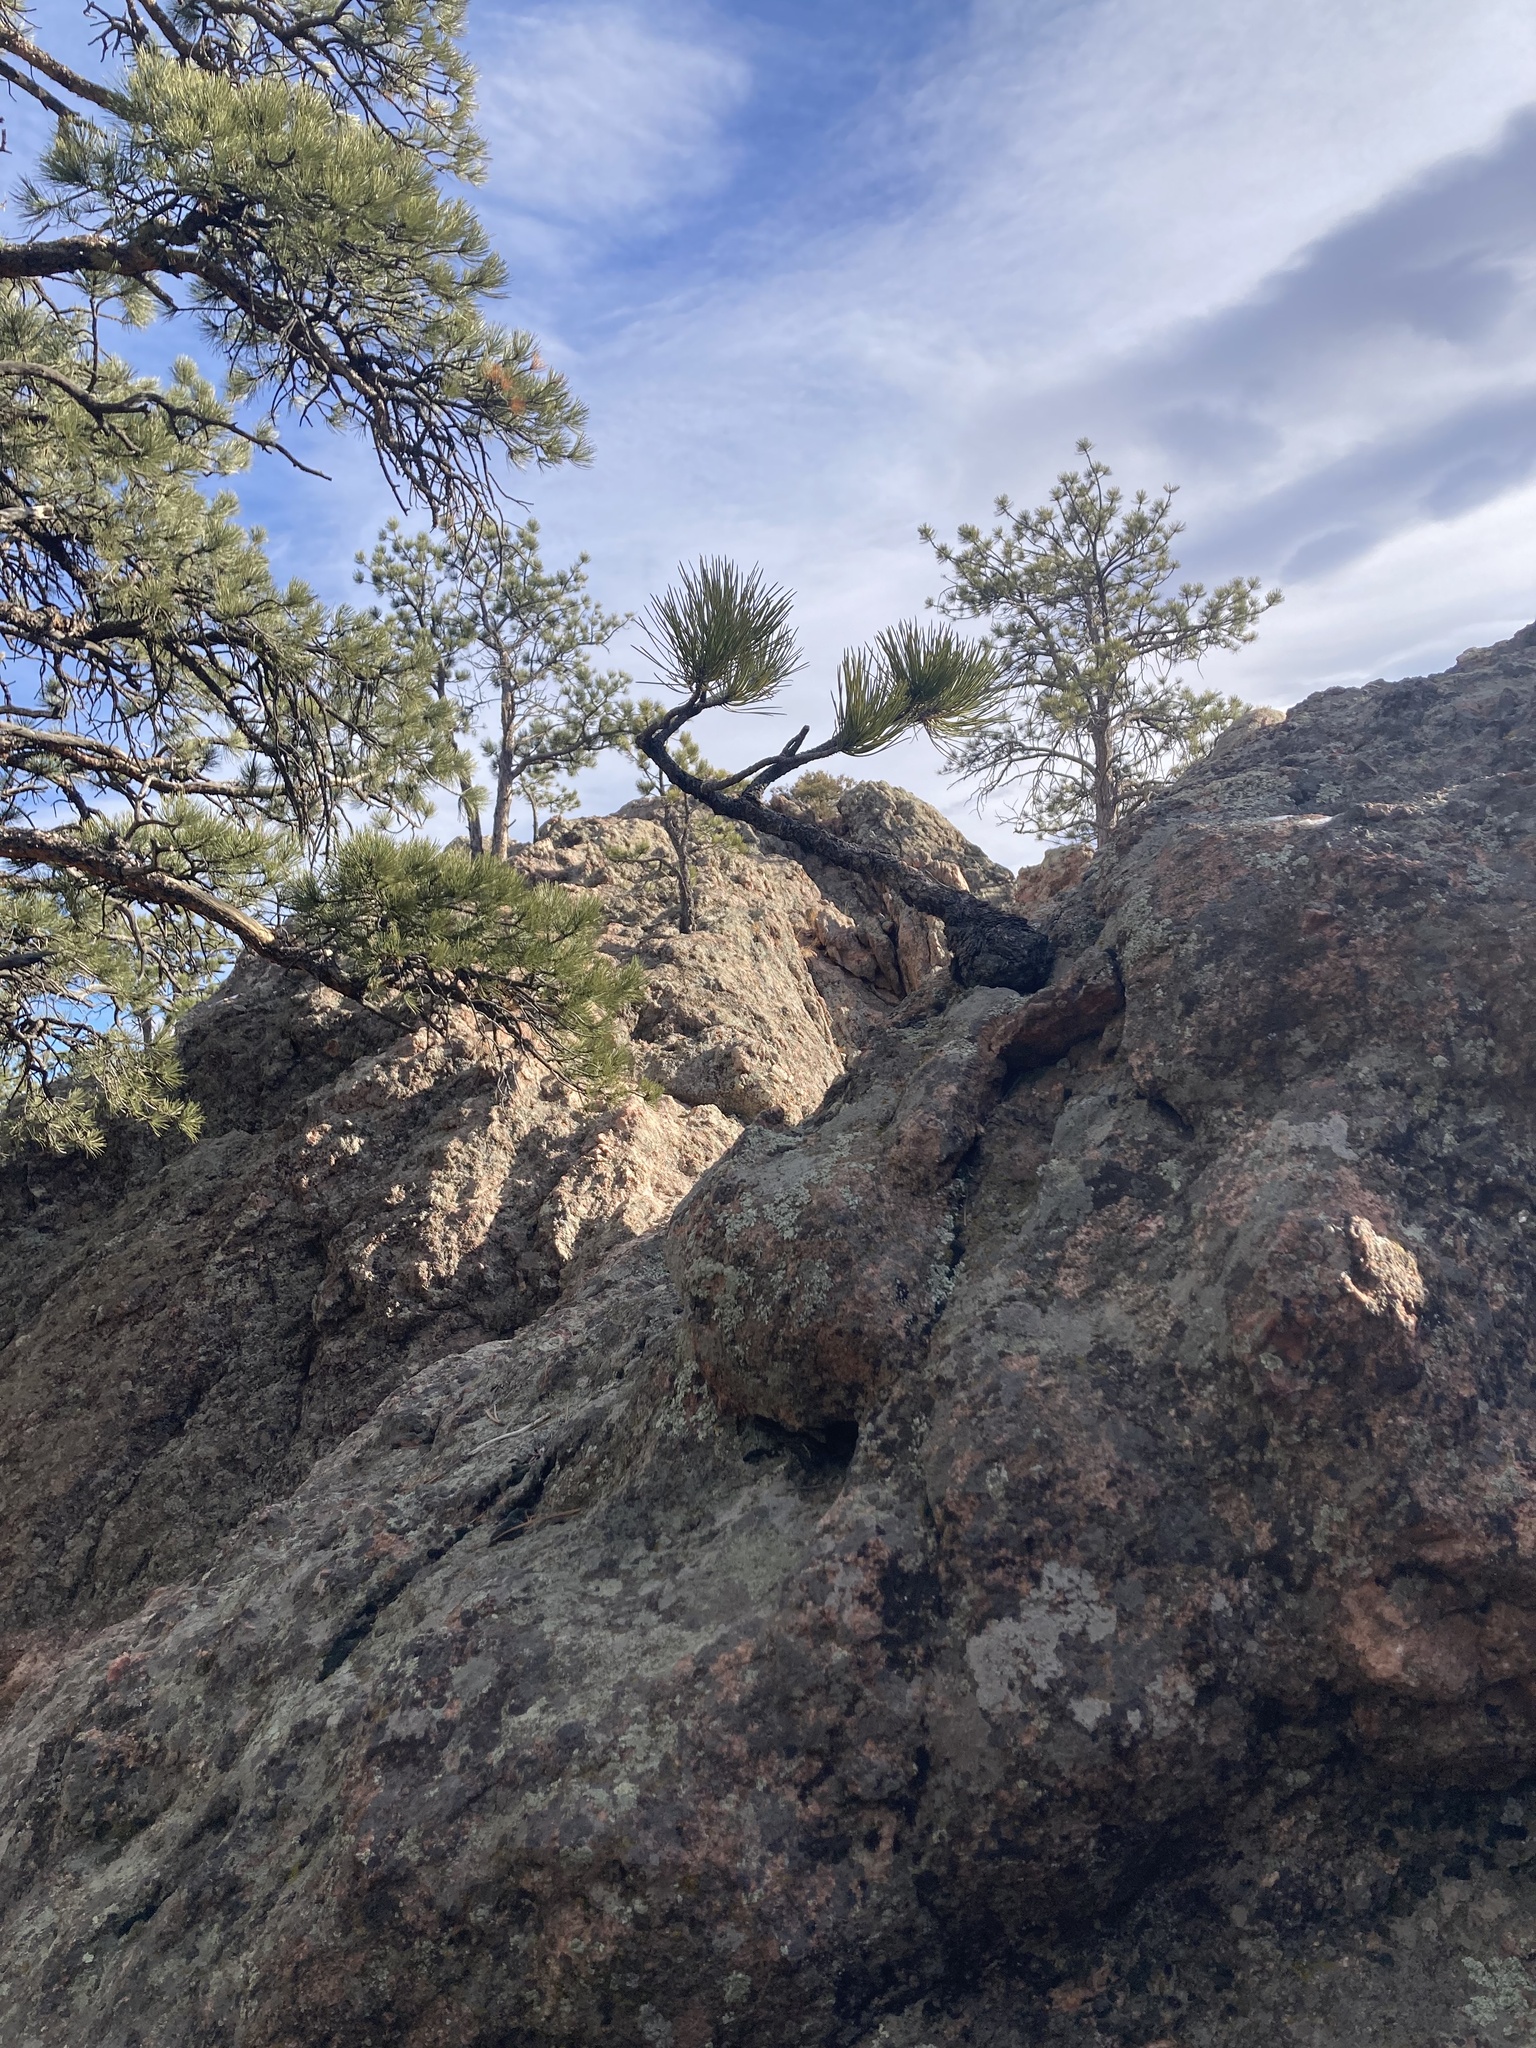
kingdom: Plantae
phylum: Tracheophyta
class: Pinopsida
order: Pinales
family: Pinaceae
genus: Pinus
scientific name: Pinus ponderosa
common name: Western yellow-pine
